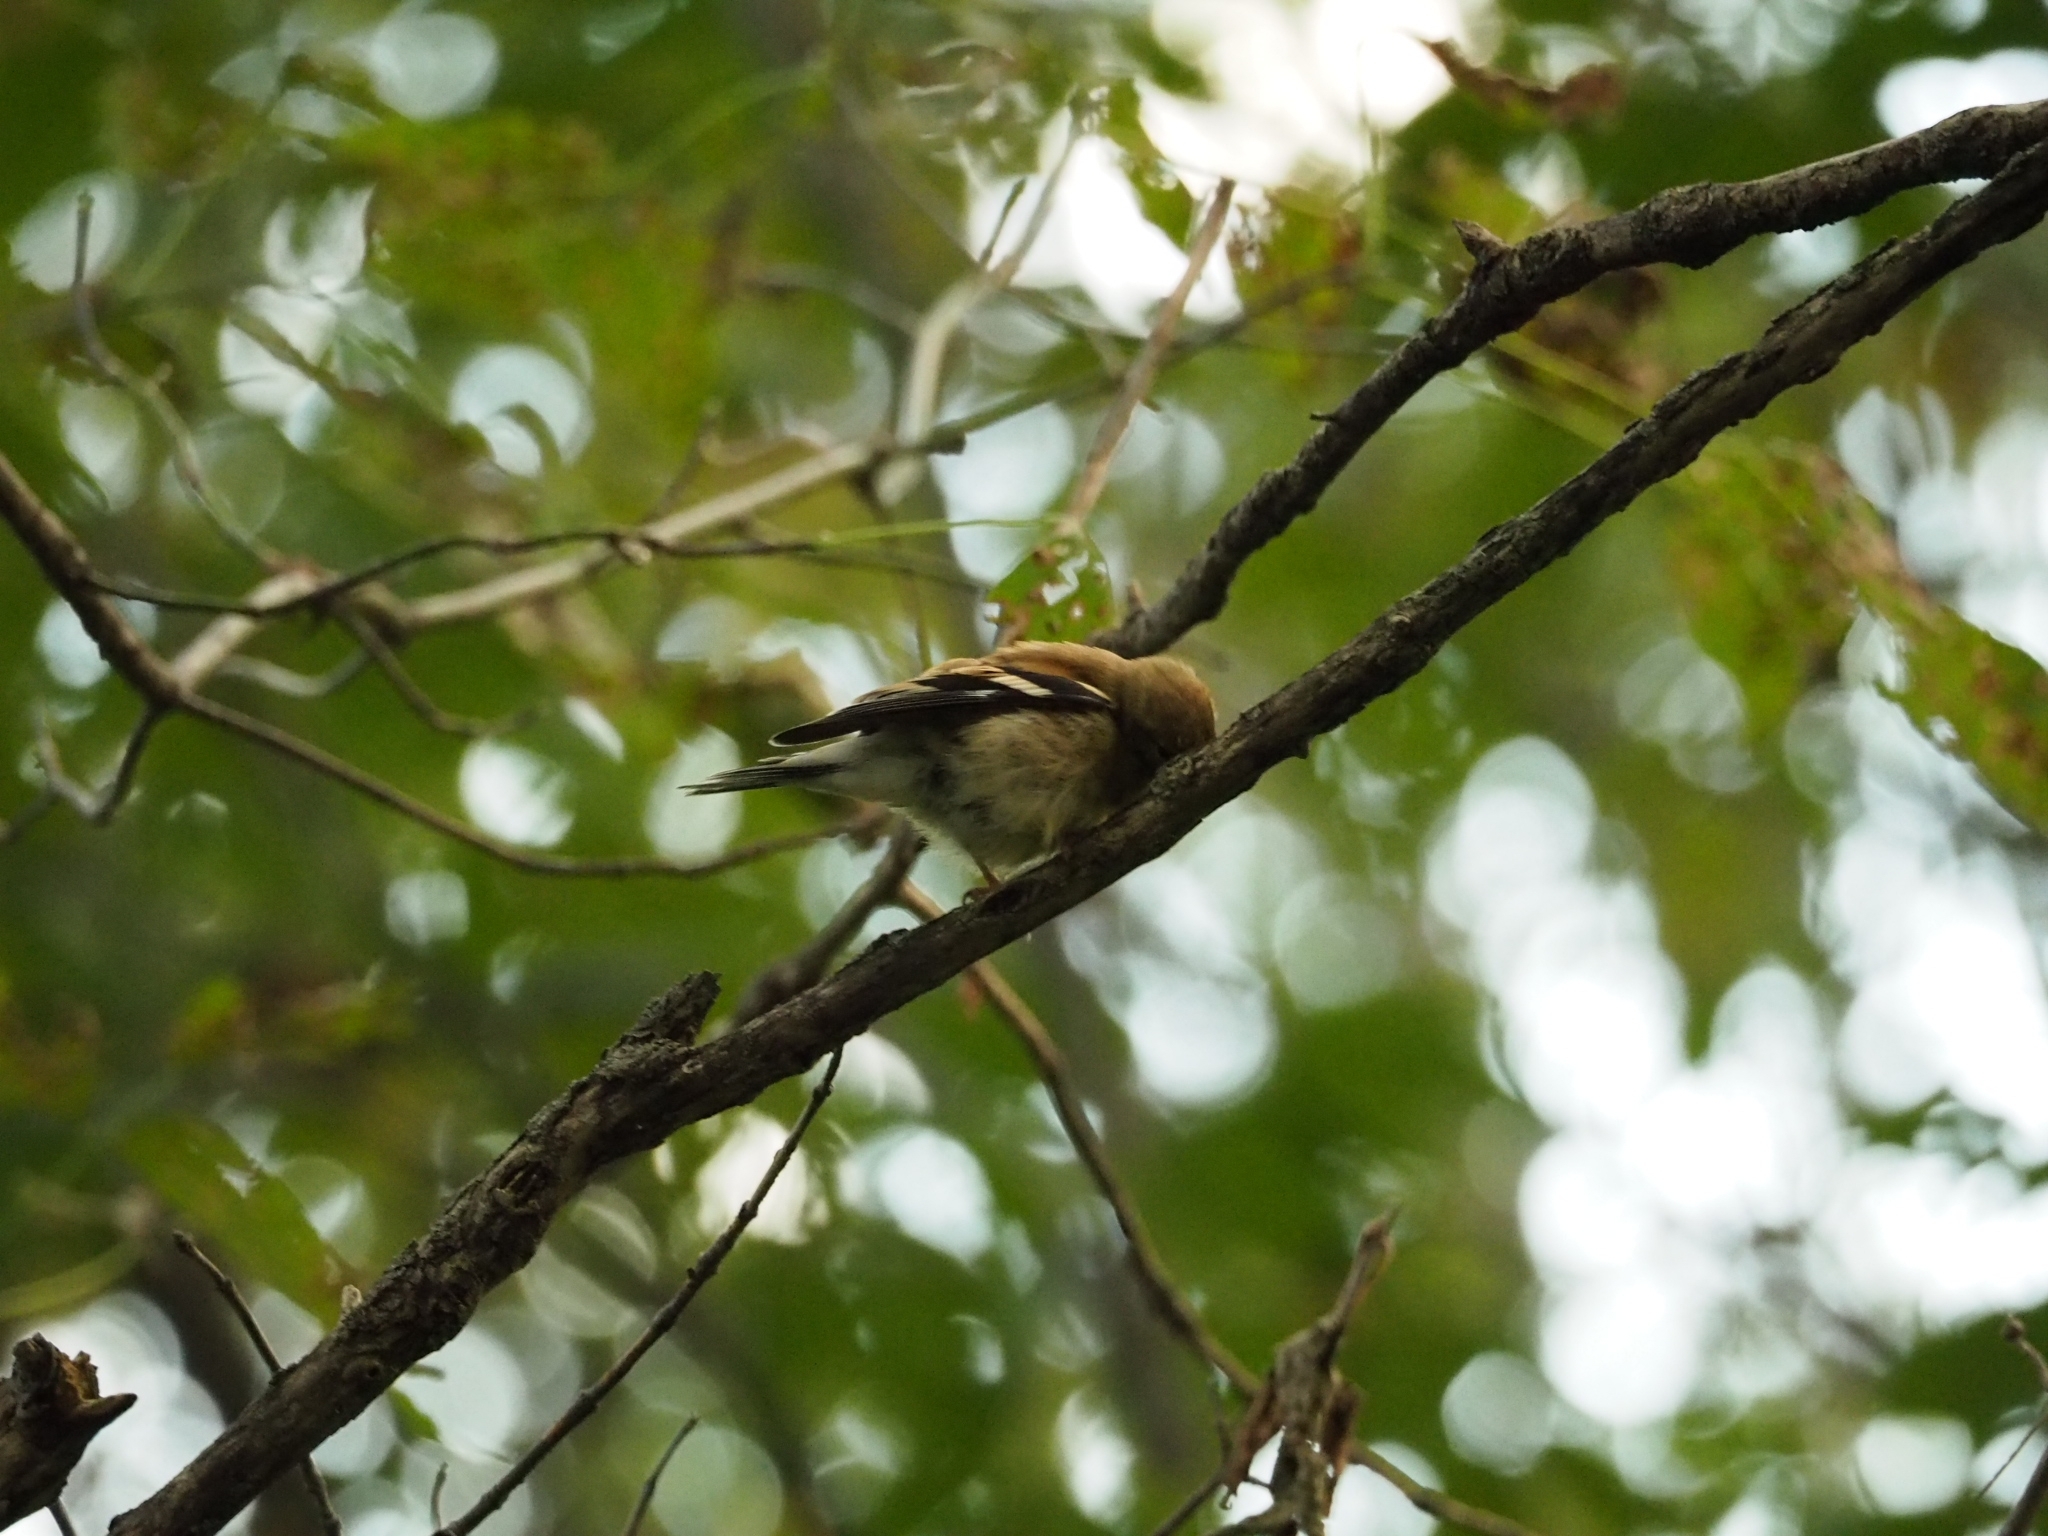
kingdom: Animalia
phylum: Chordata
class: Aves
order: Passeriformes
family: Fringillidae
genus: Spinus
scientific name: Spinus tristis
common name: American goldfinch
